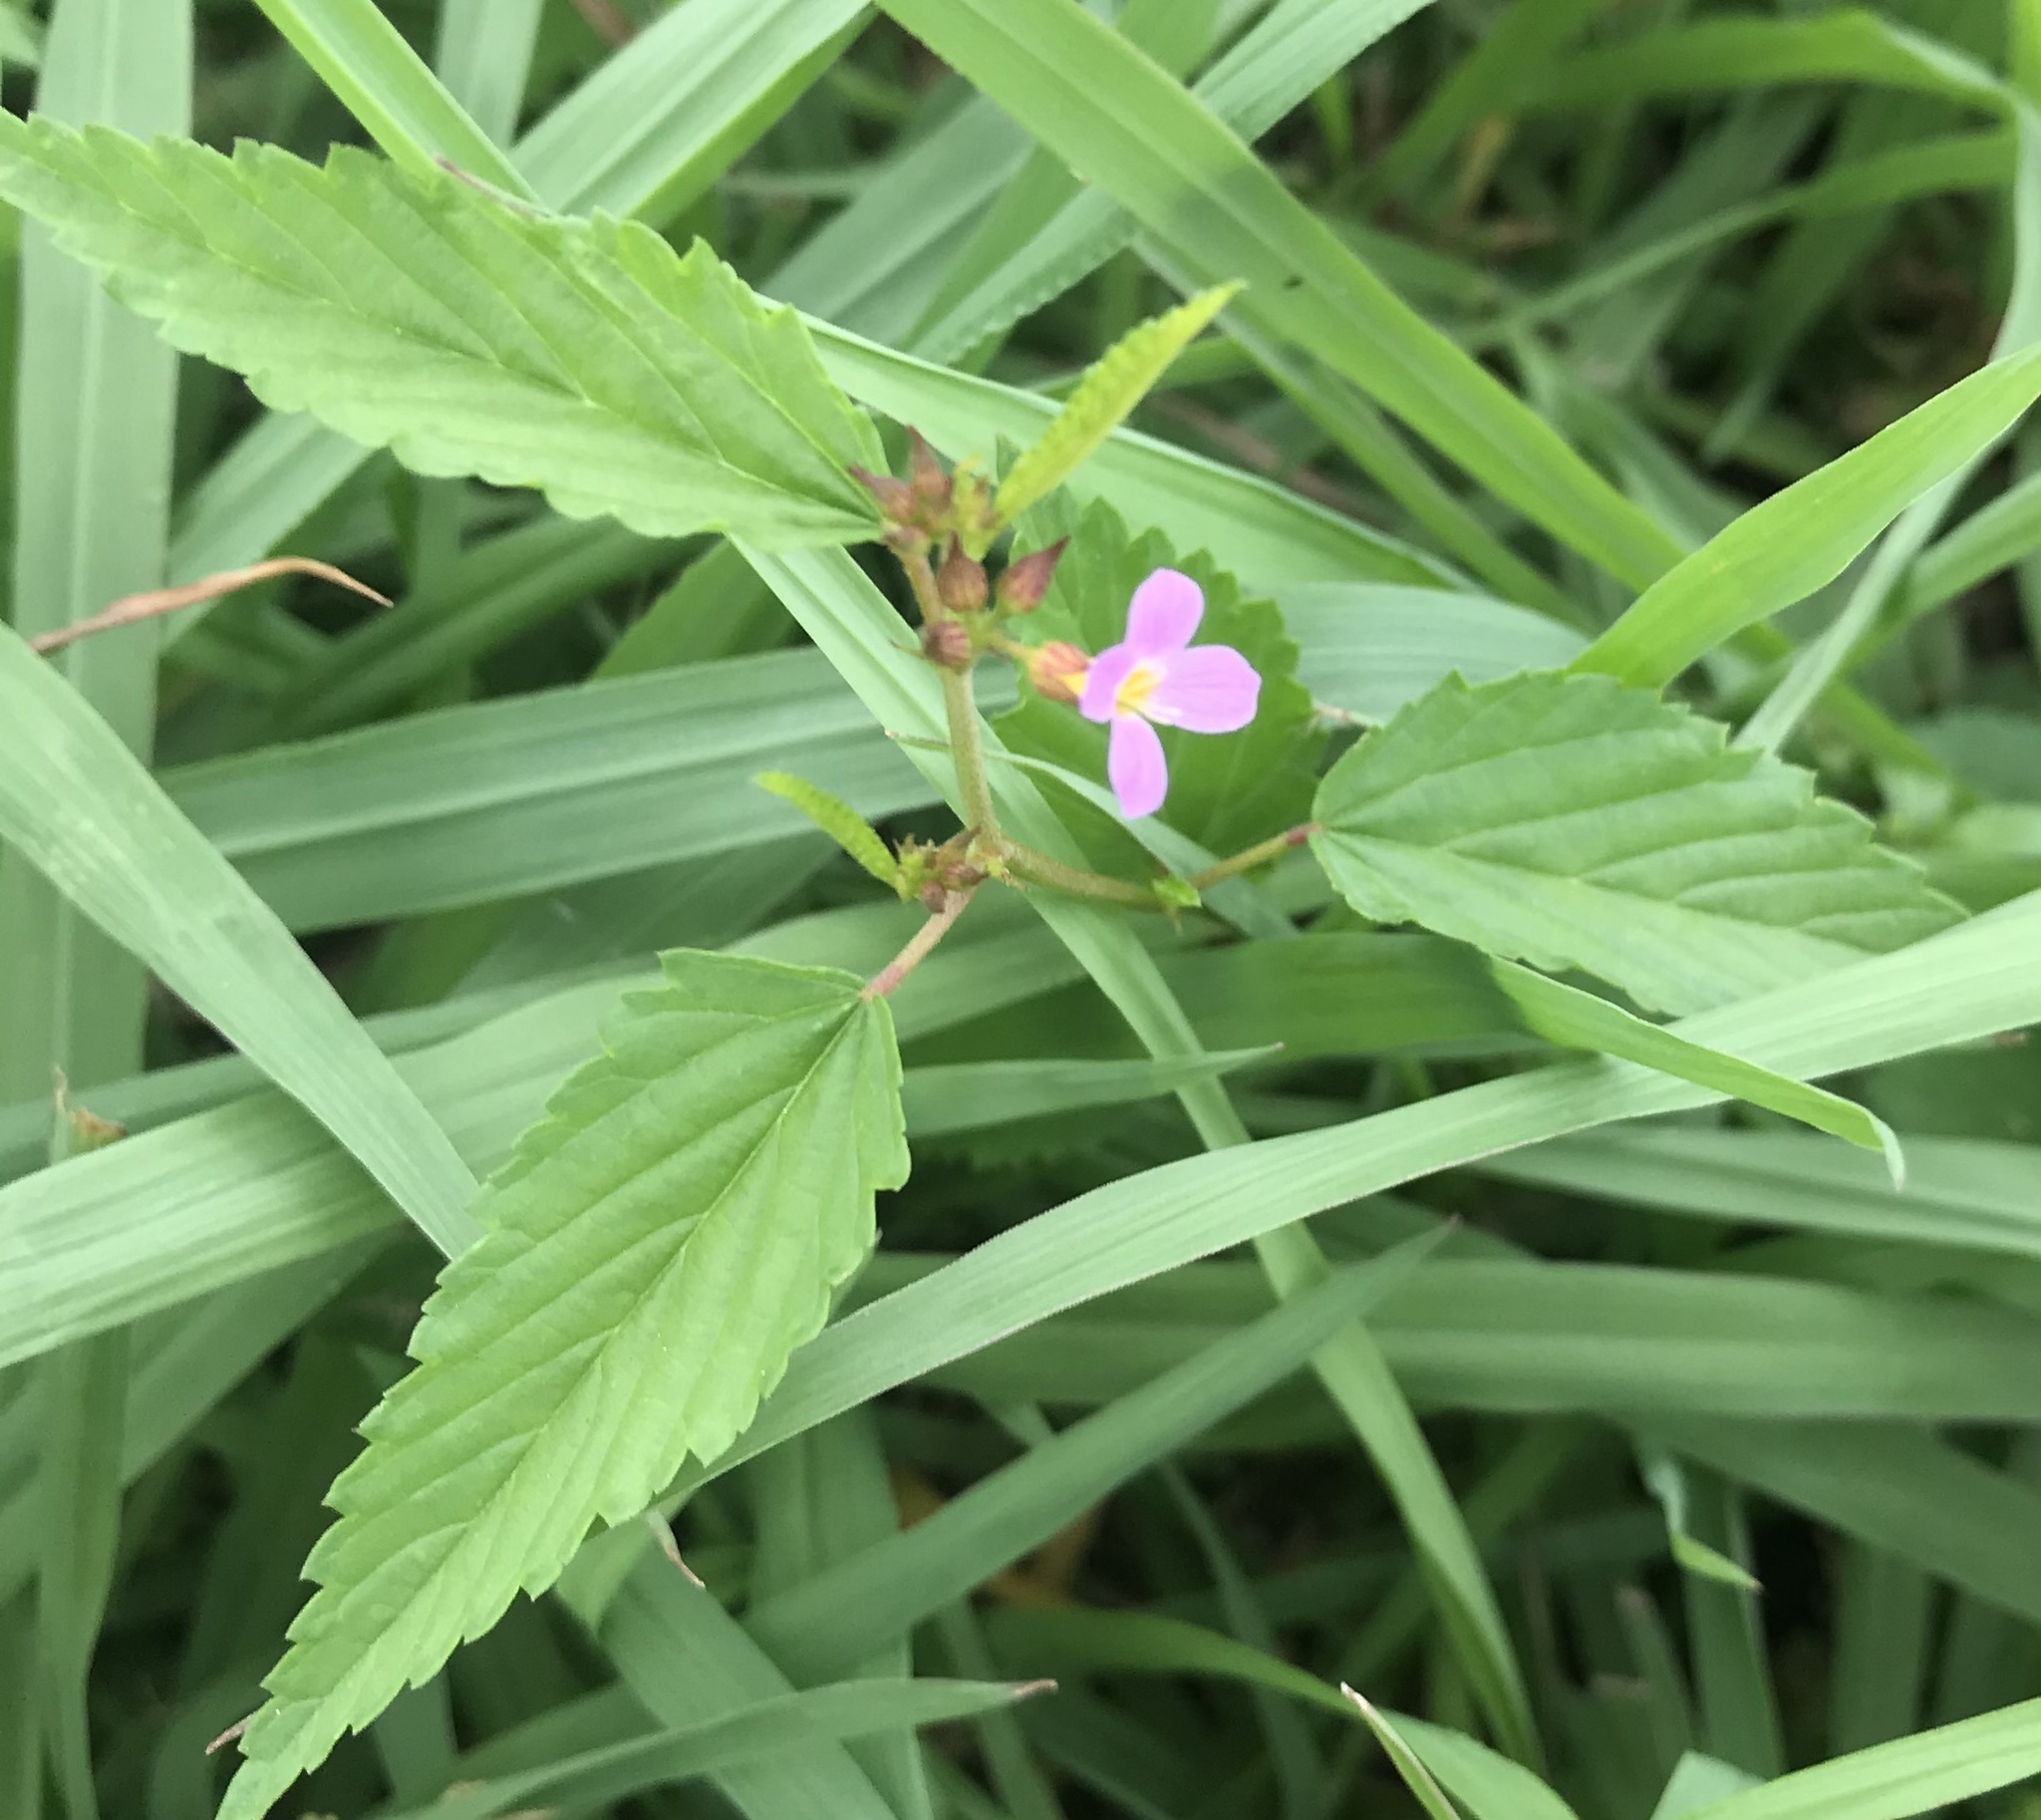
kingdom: Plantae
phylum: Tracheophyta
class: Magnoliopsida
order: Malvales
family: Malvaceae
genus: Melochia
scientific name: Melochia pyramidata
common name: Pyramidflower
